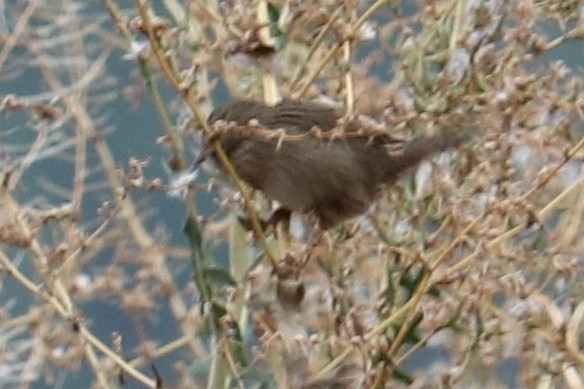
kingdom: Animalia
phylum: Chordata
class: Aves
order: Passeriformes
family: Passerellidae
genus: Melospiza
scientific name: Melospiza lincolnii
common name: Lincoln's sparrow
